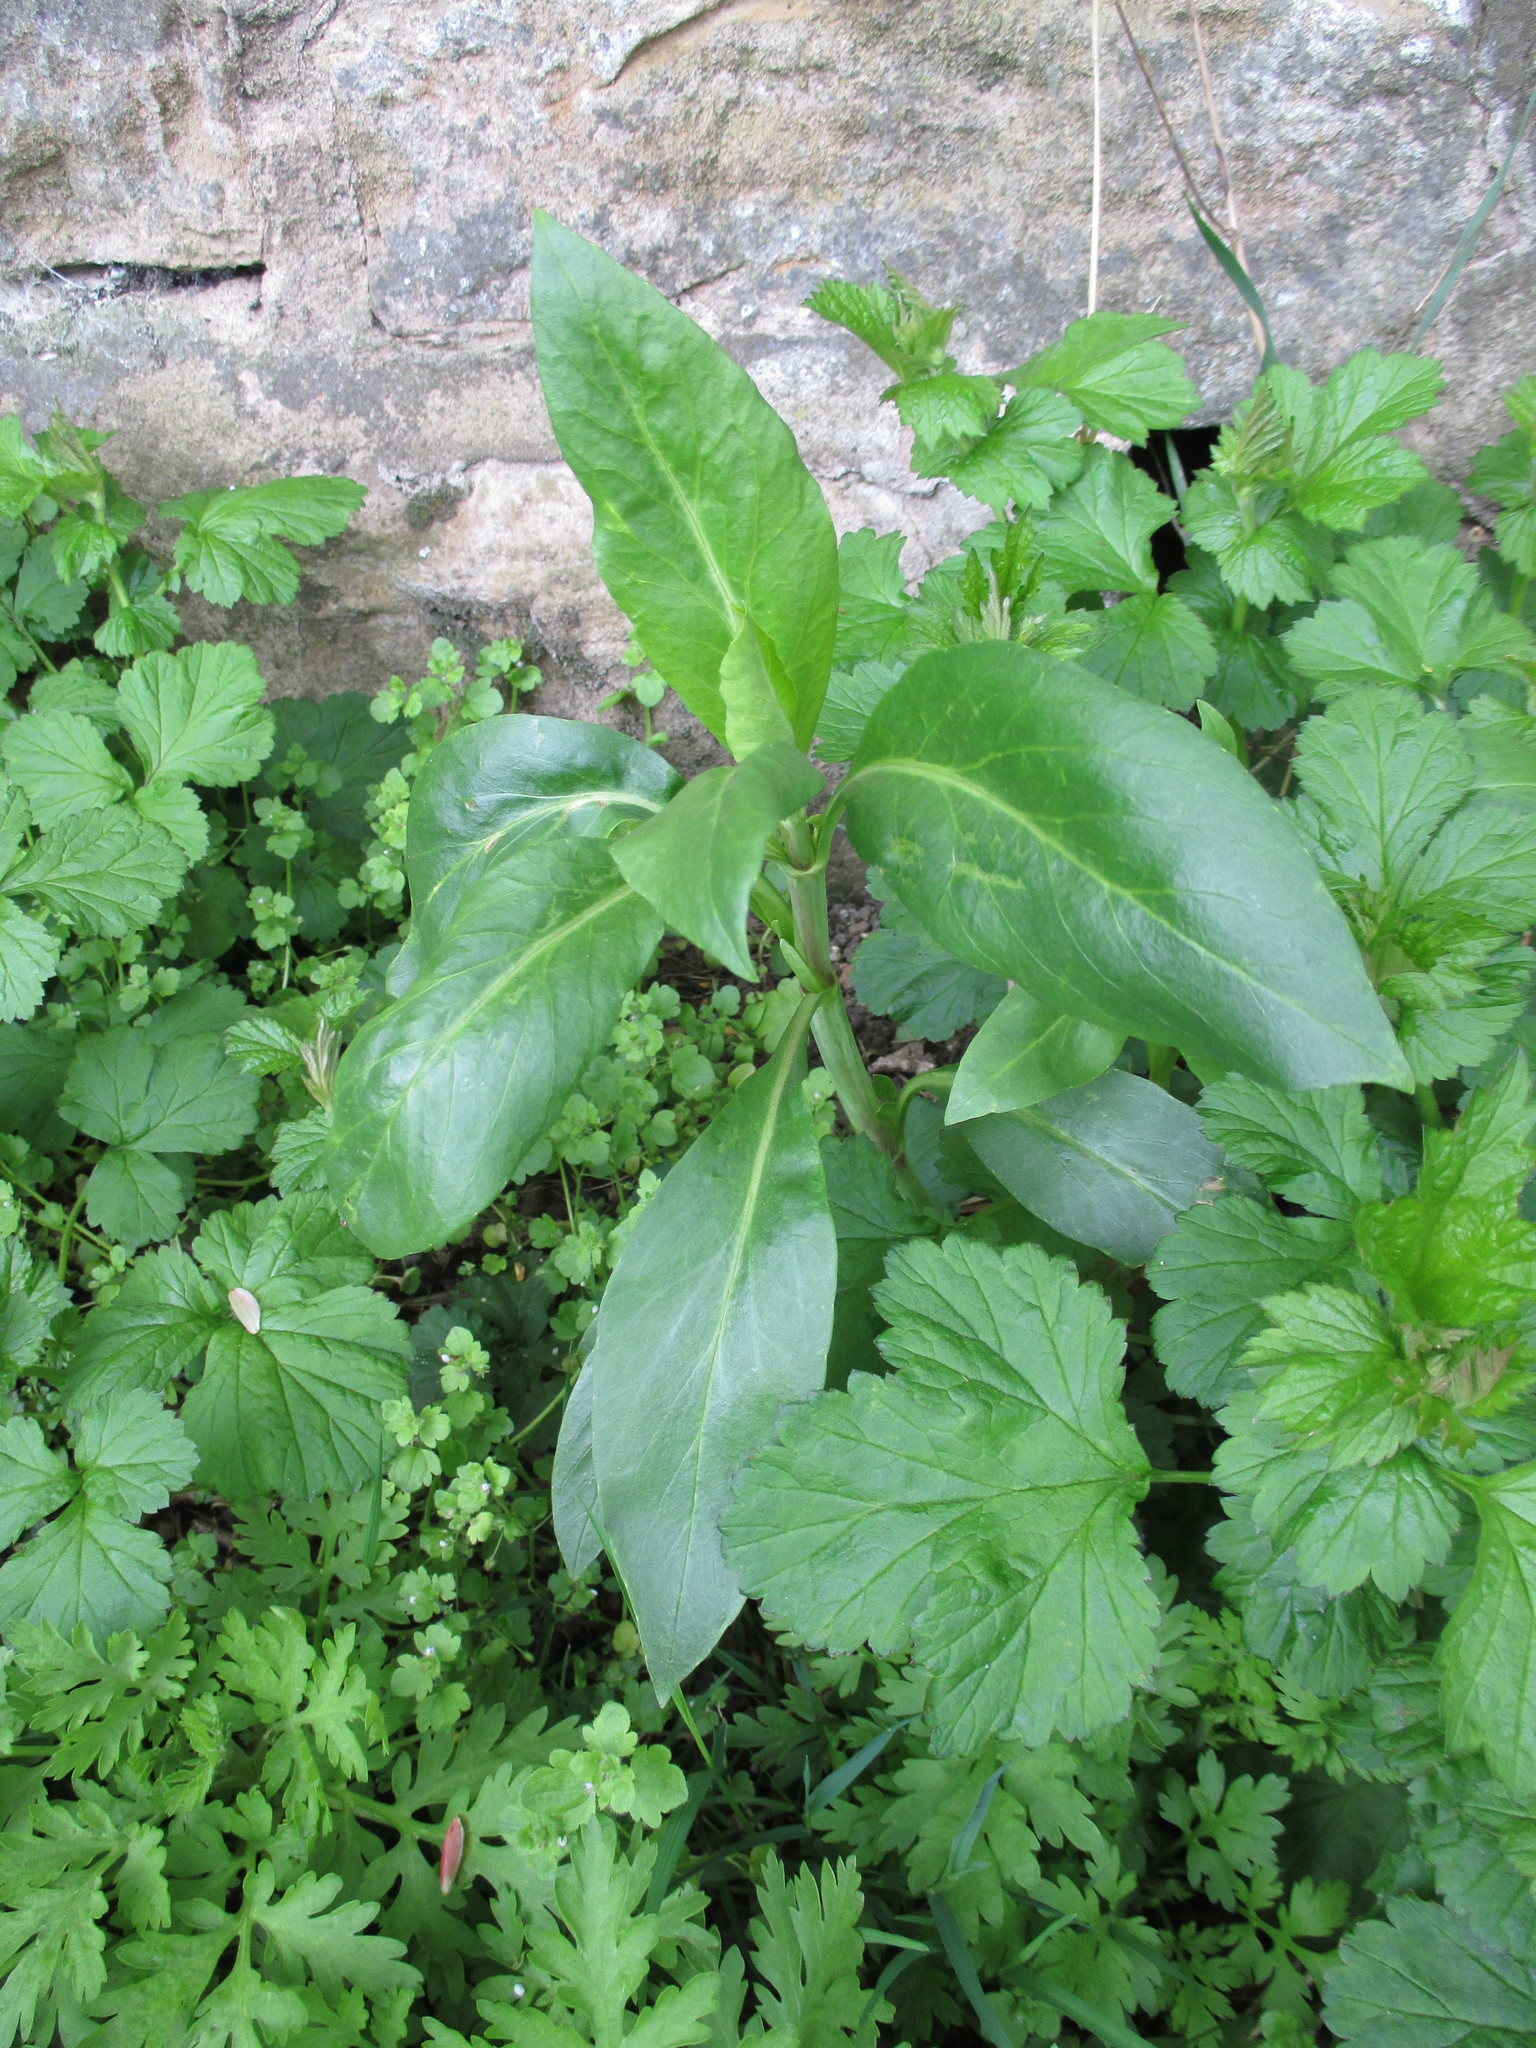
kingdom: Plantae
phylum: Tracheophyta
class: Magnoliopsida
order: Dipsacales
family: Caprifoliaceae
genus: Centranthus
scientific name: Centranthus ruber
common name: Red valerian
